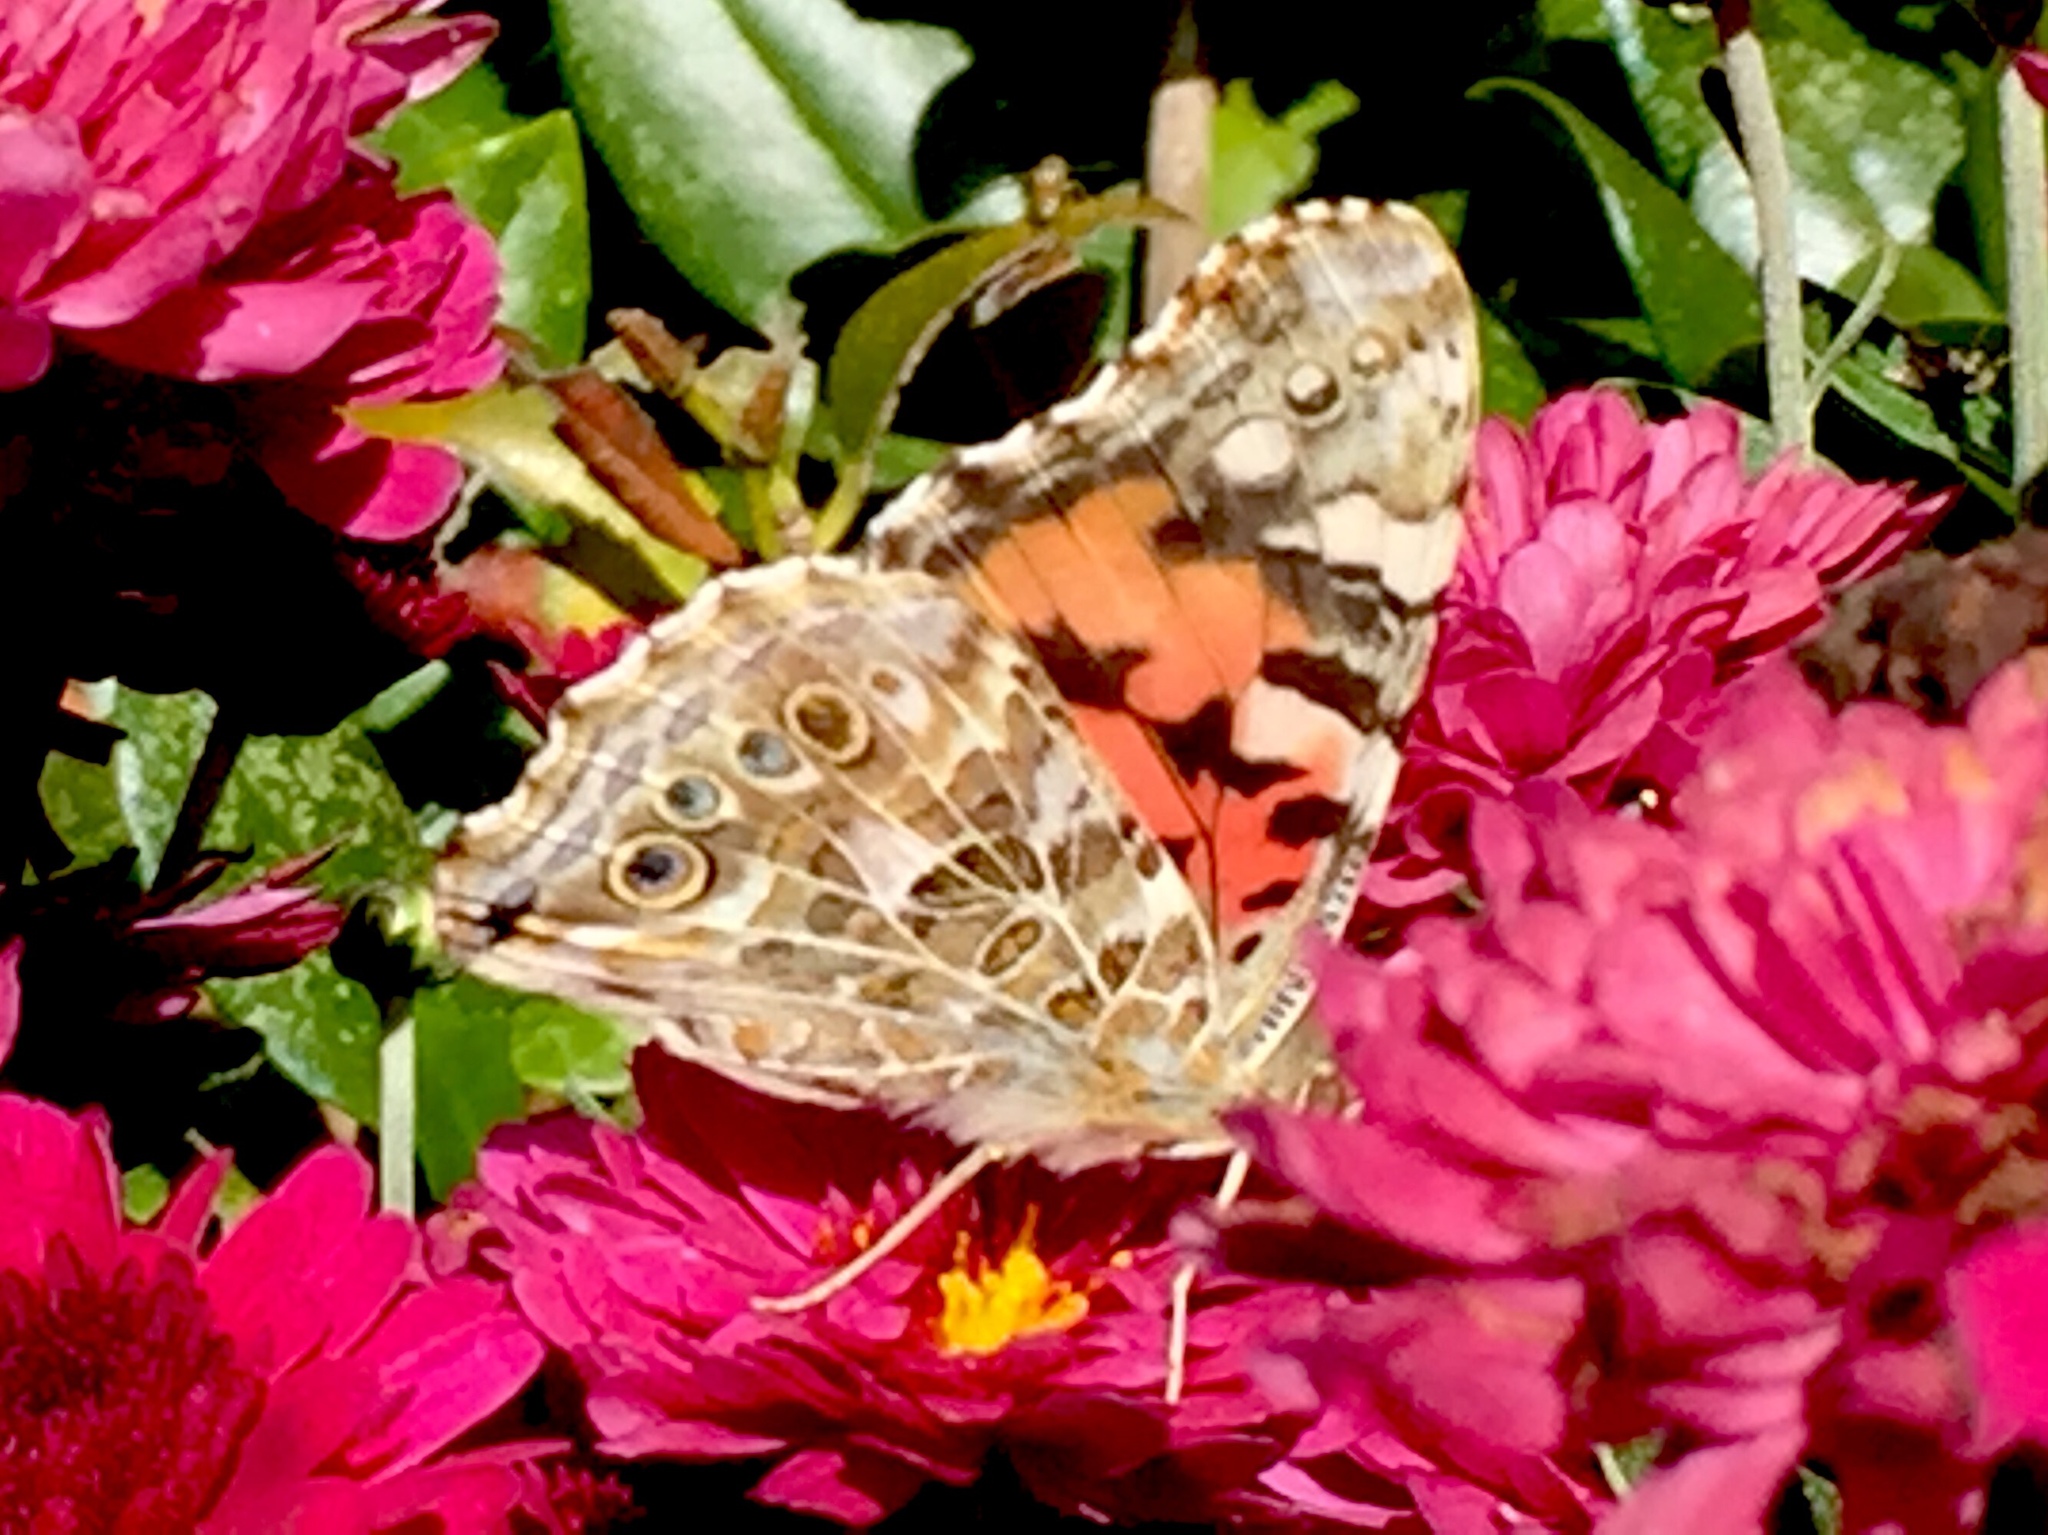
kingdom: Animalia
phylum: Arthropoda
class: Insecta
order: Lepidoptera
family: Nymphalidae
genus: Vanessa
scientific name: Vanessa cardui
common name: Painted lady
